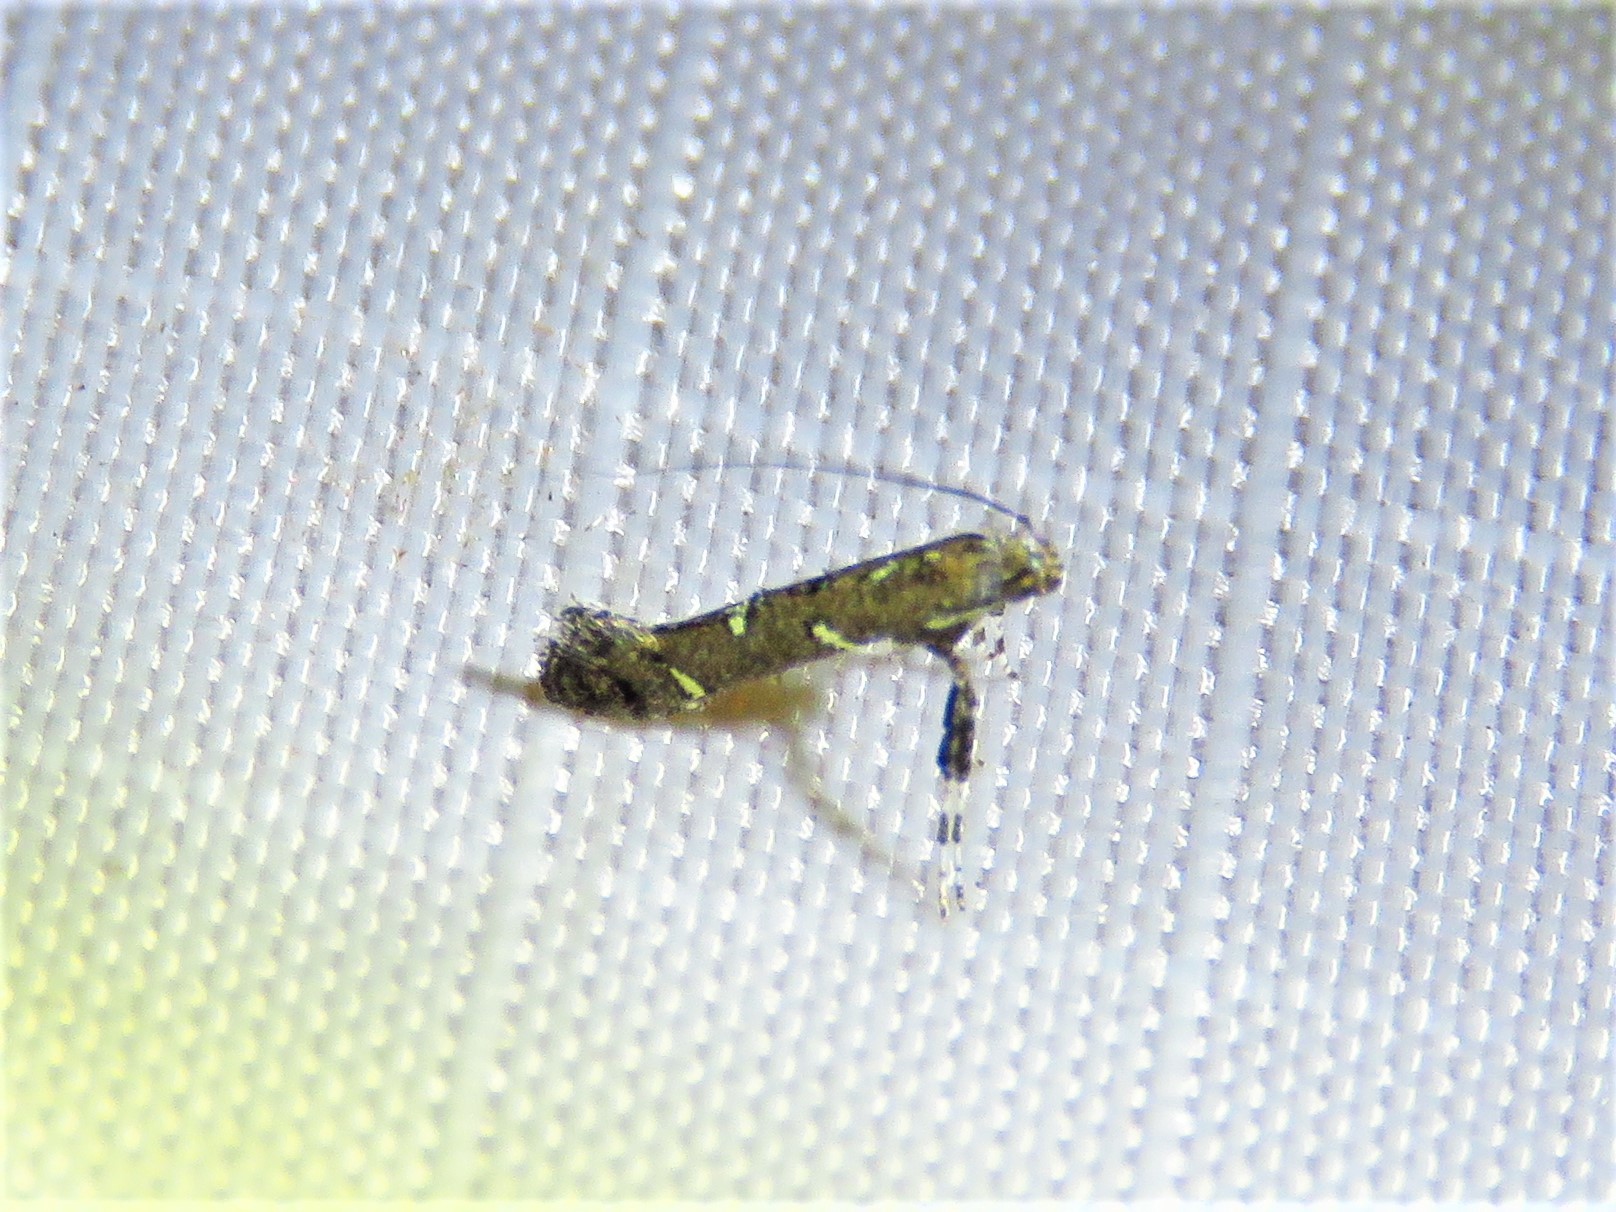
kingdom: Animalia
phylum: Arthropoda
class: Insecta
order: Lepidoptera
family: Gracillariidae
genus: Caloptilia
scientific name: Caloptilia triadicae
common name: Tallow leaf roller
